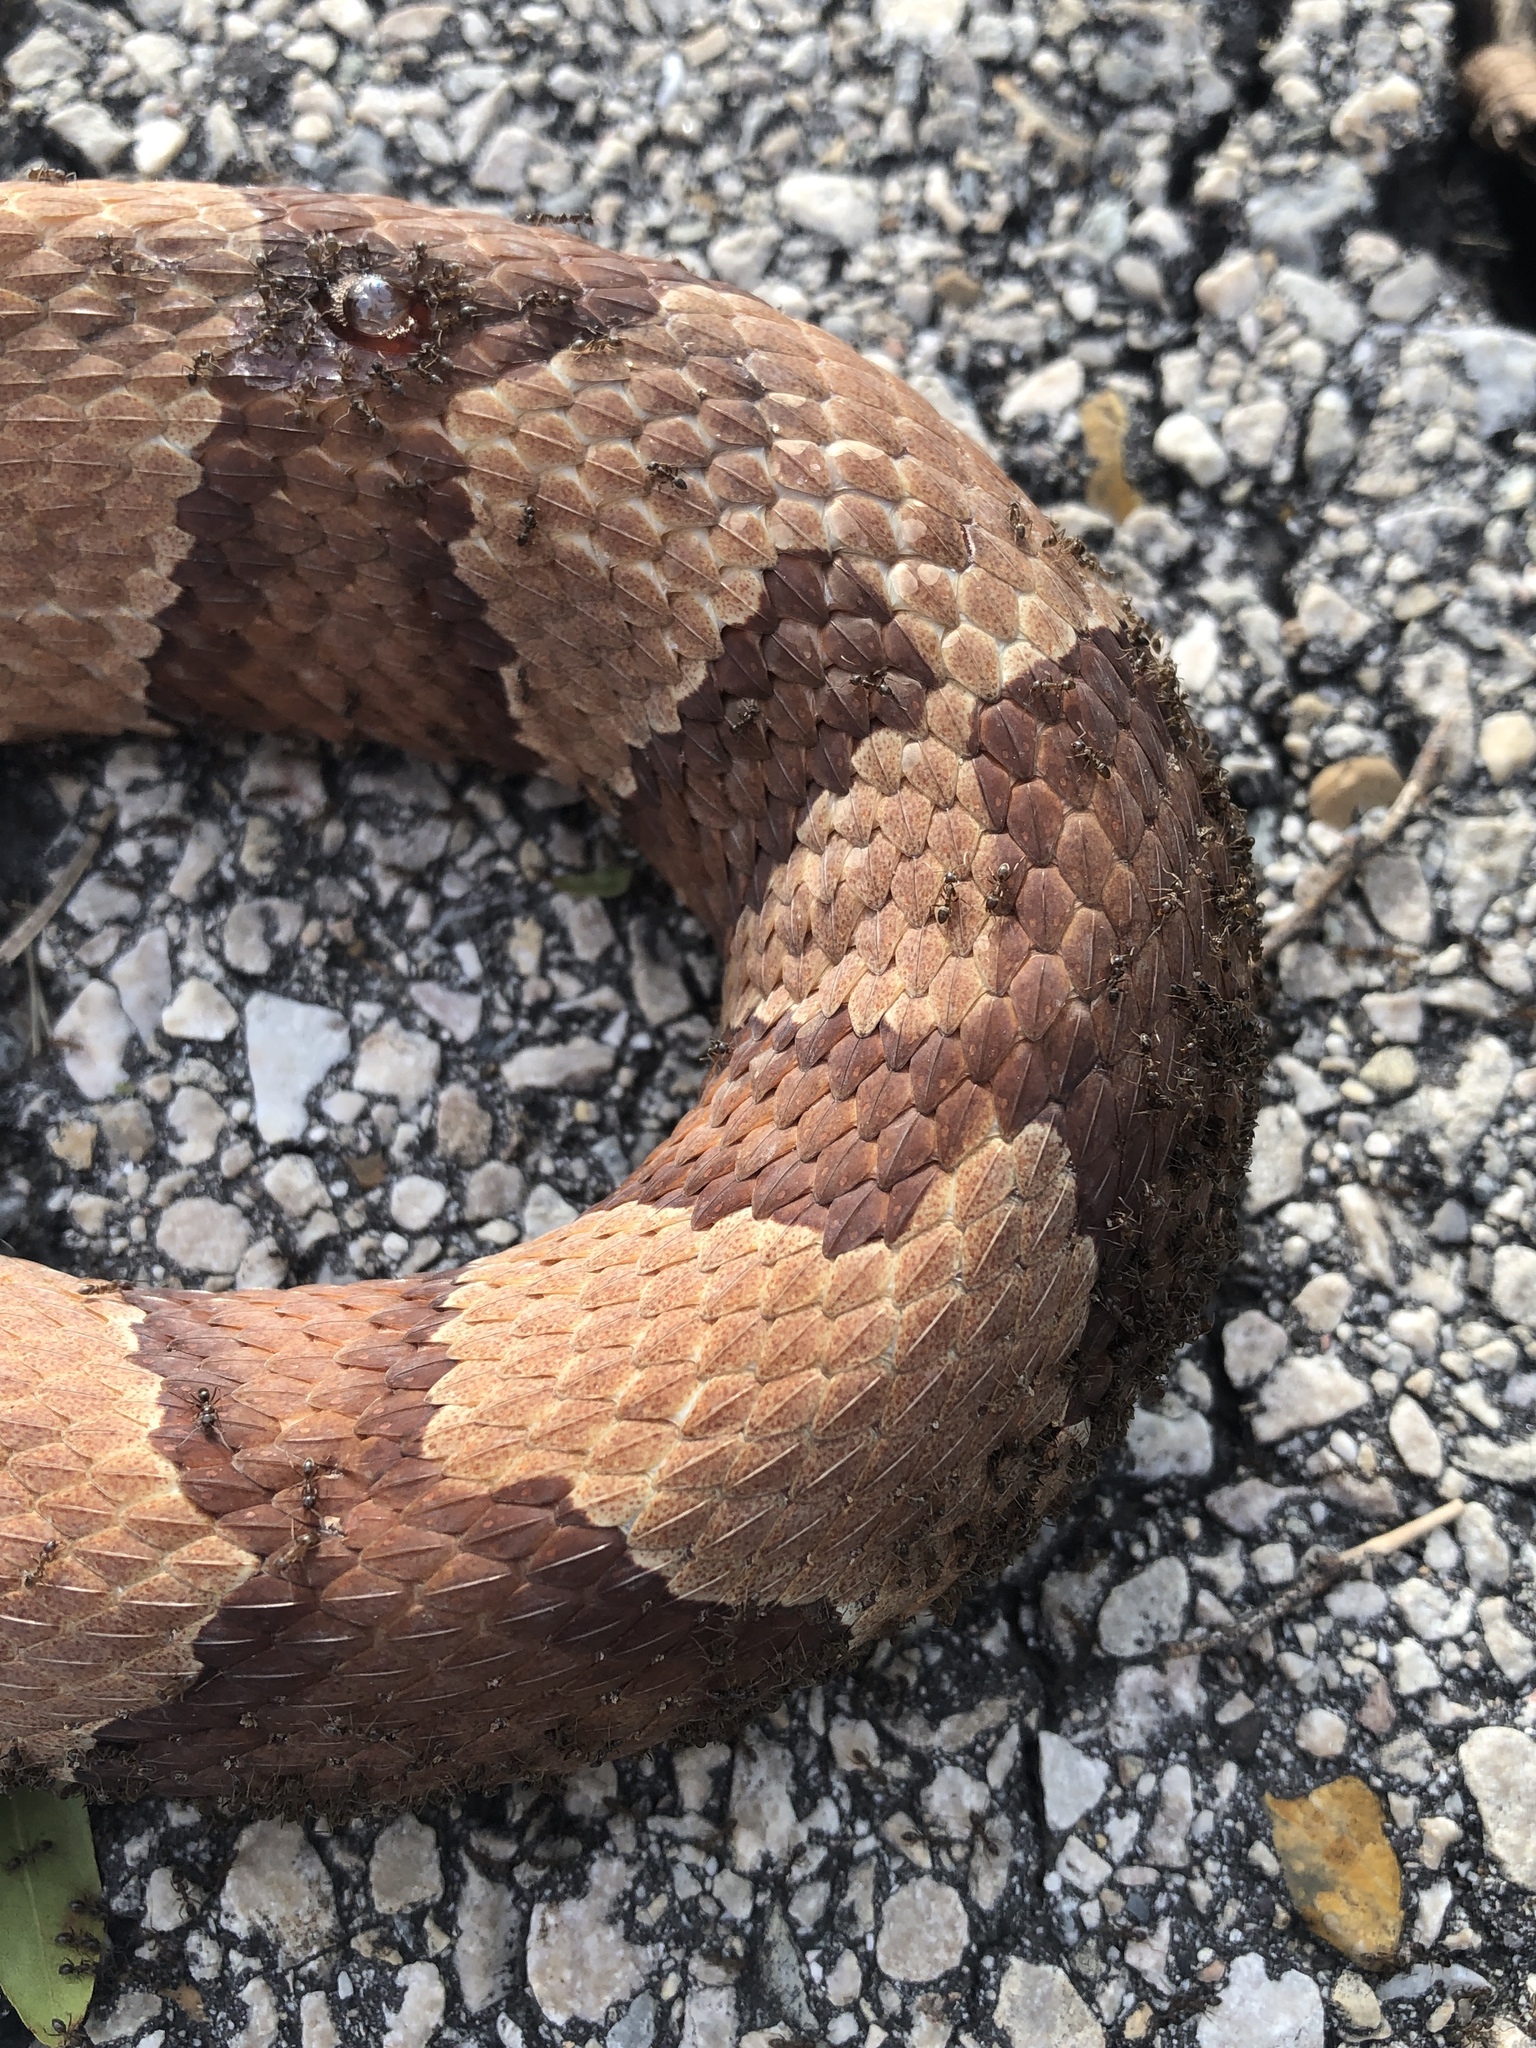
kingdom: Animalia
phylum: Chordata
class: Squamata
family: Viperidae
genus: Agkistrodon
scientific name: Agkistrodon laticinctus
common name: Broad-banded copperhead
